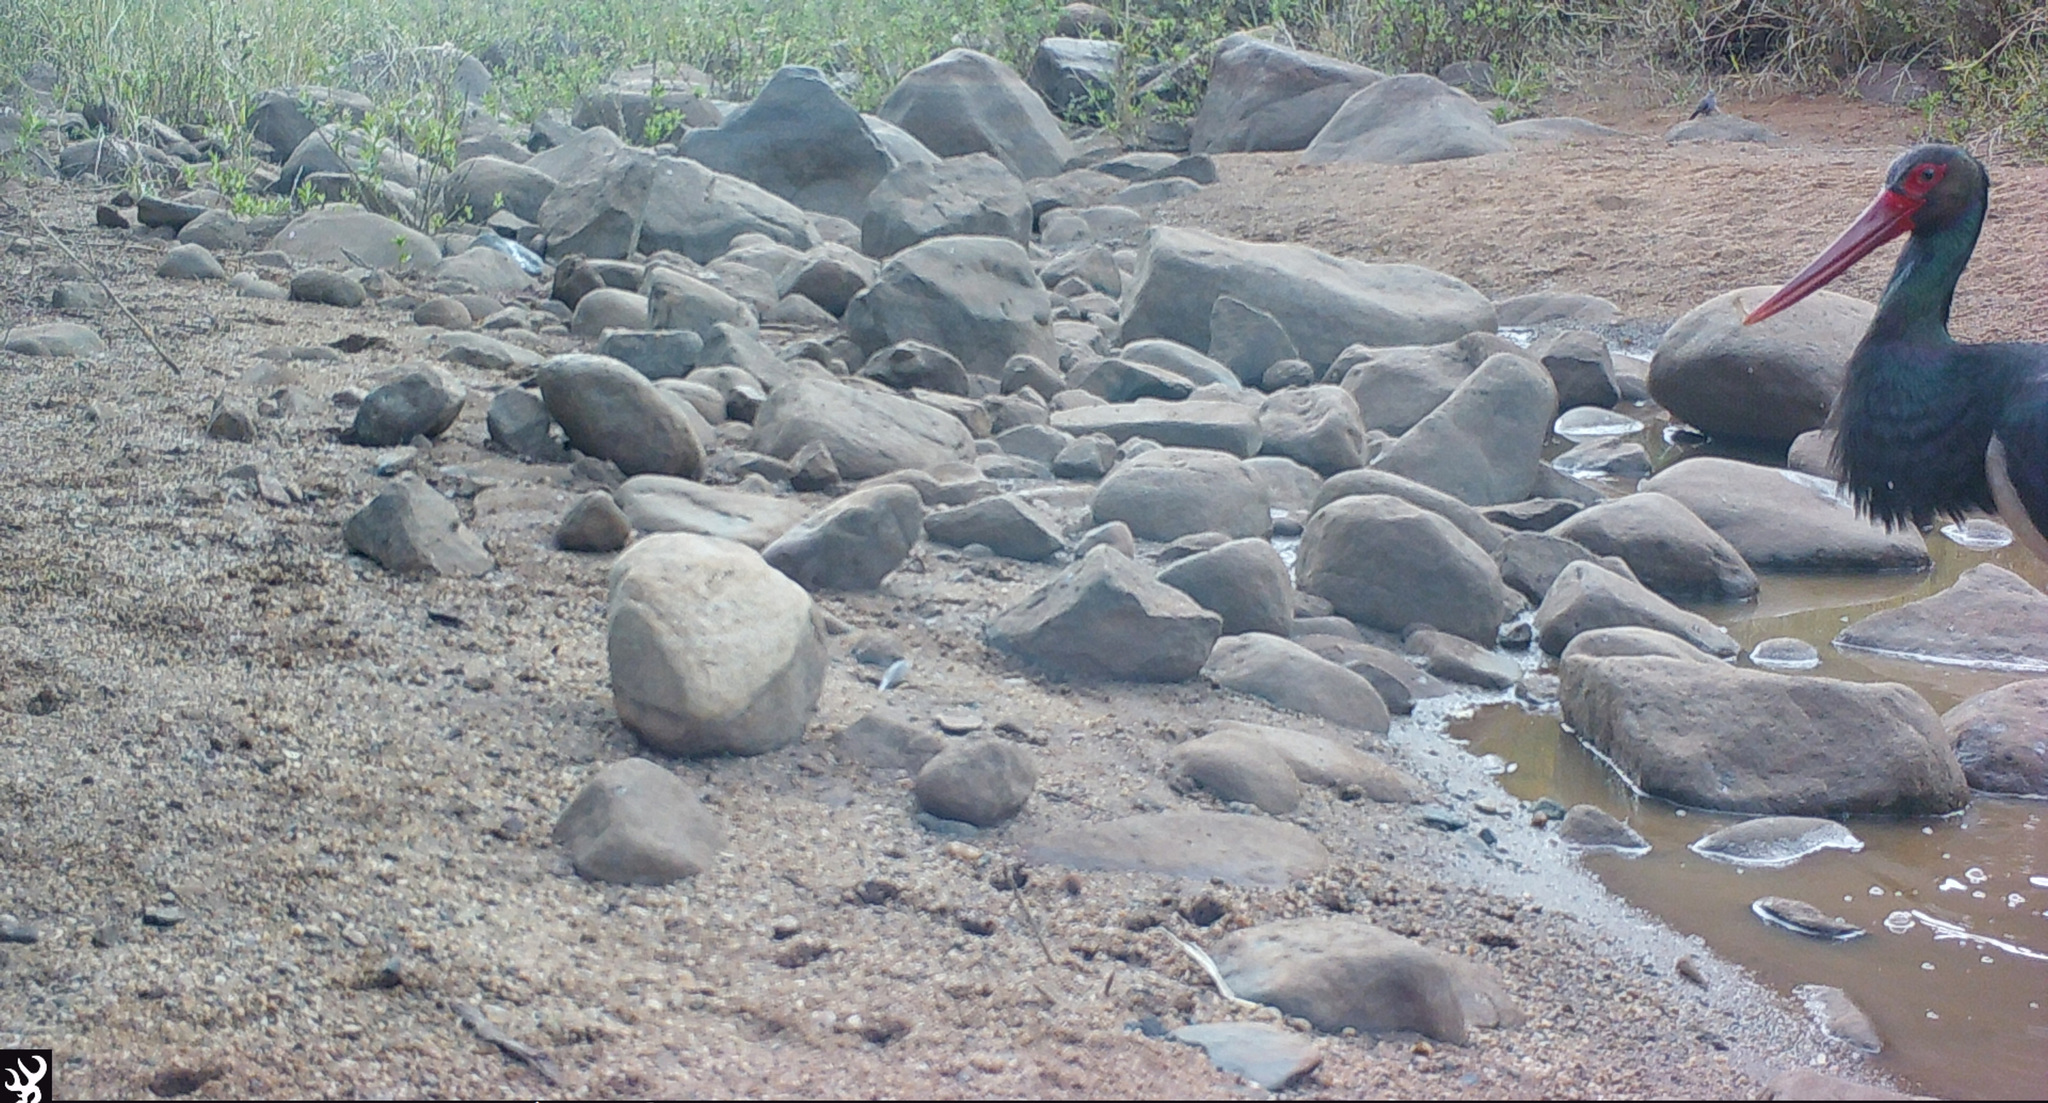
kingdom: Animalia
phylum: Chordata
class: Aves
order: Ciconiiformes
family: Ciconiidae
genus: Ciconia
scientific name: Ciconia nigra
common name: Black stork
